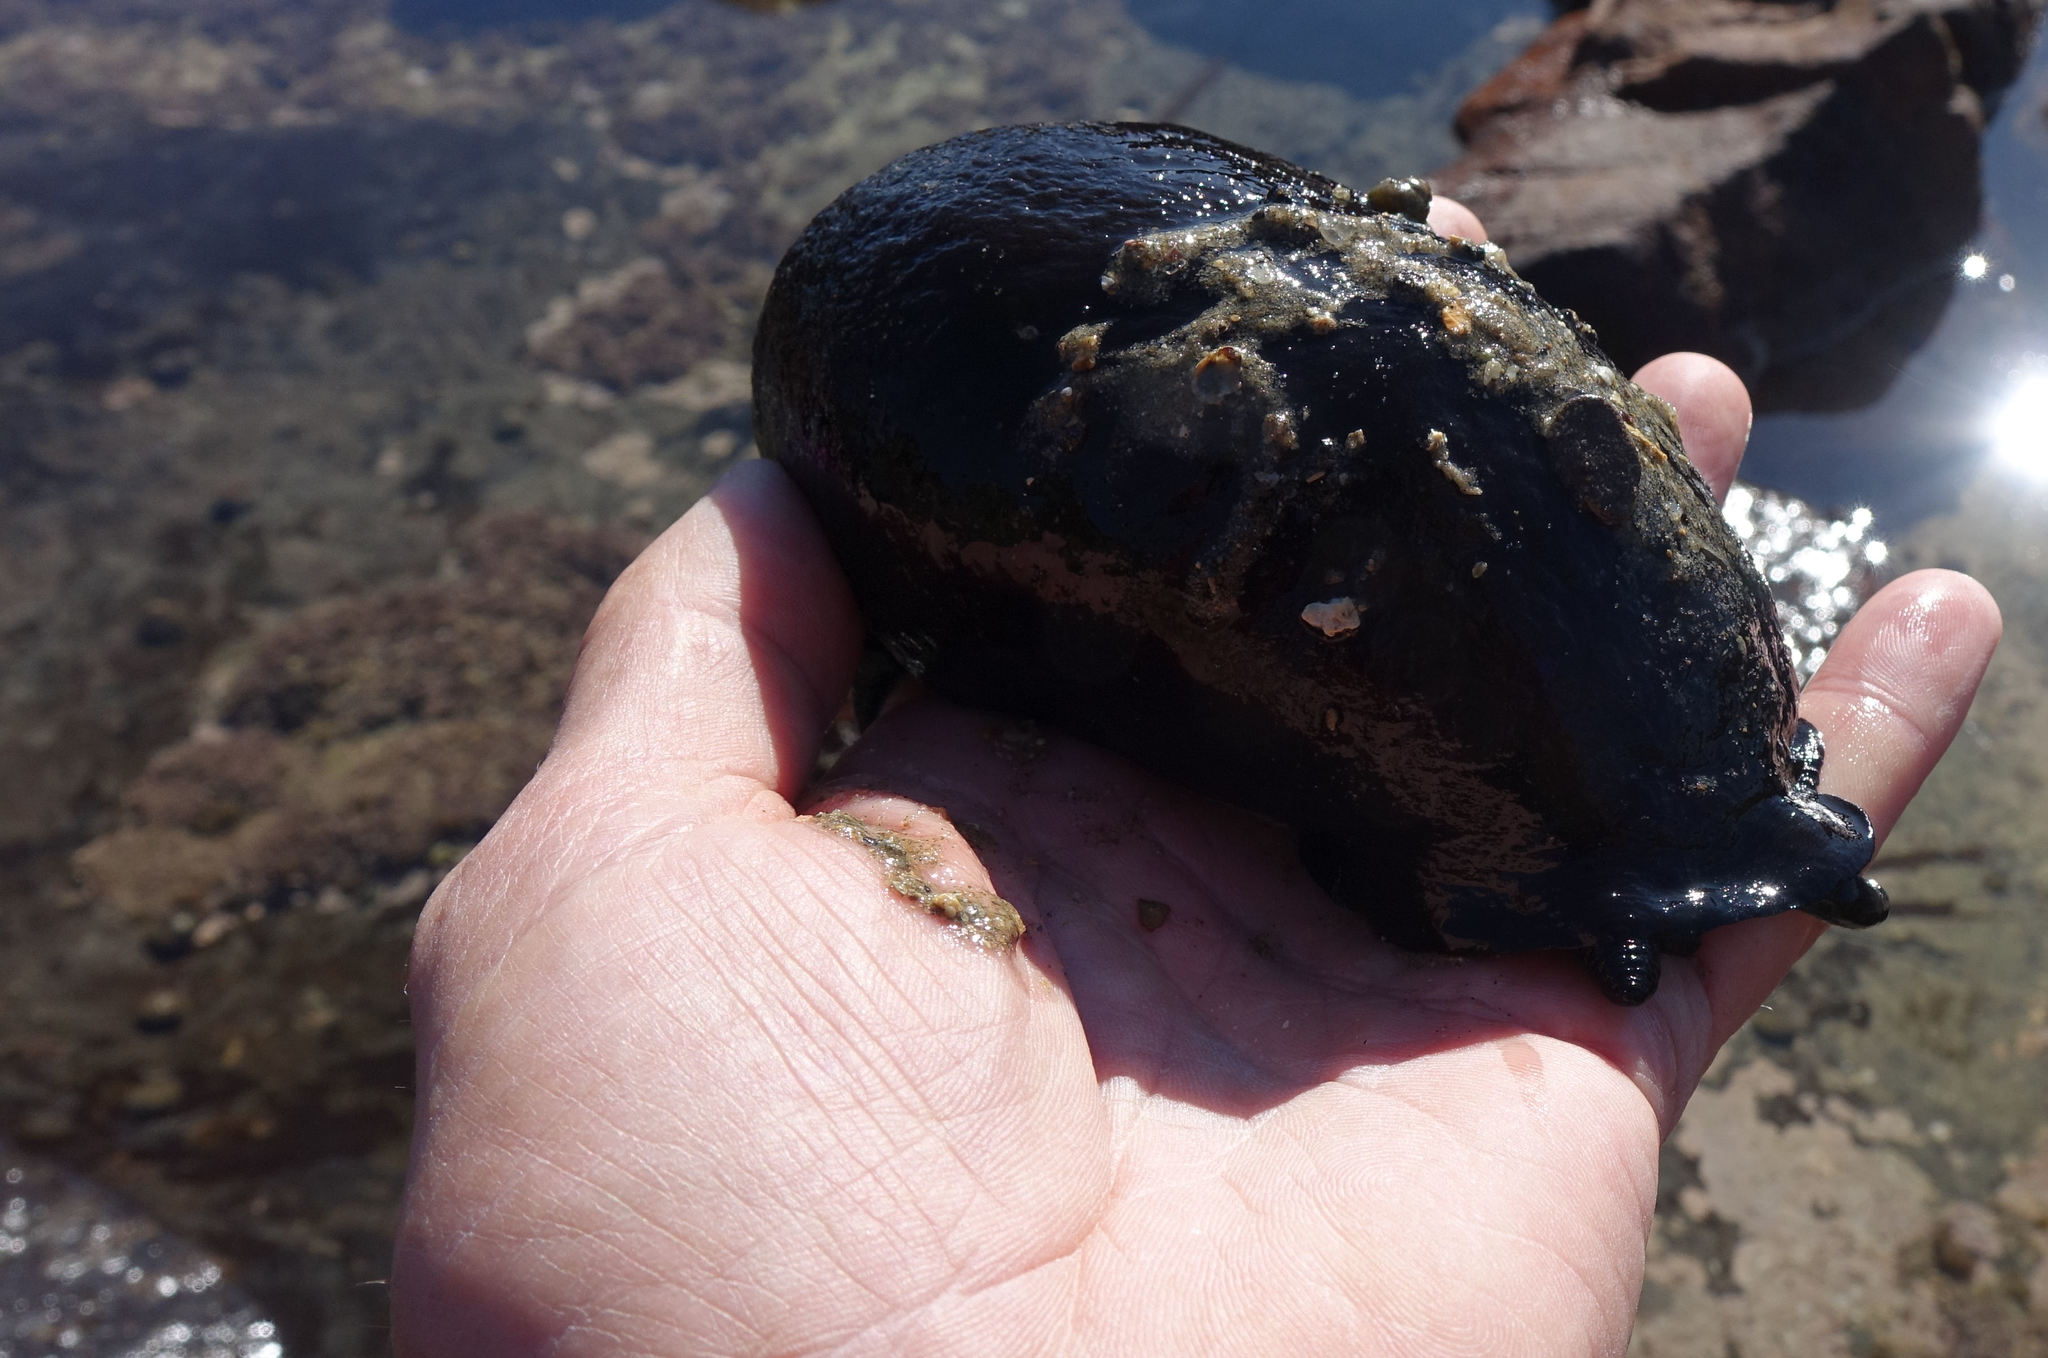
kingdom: Animalia
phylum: Mollusca
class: Gastropoda
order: Lepetellida
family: Fissurellidae
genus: Scutus
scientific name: Scutus breviculus
